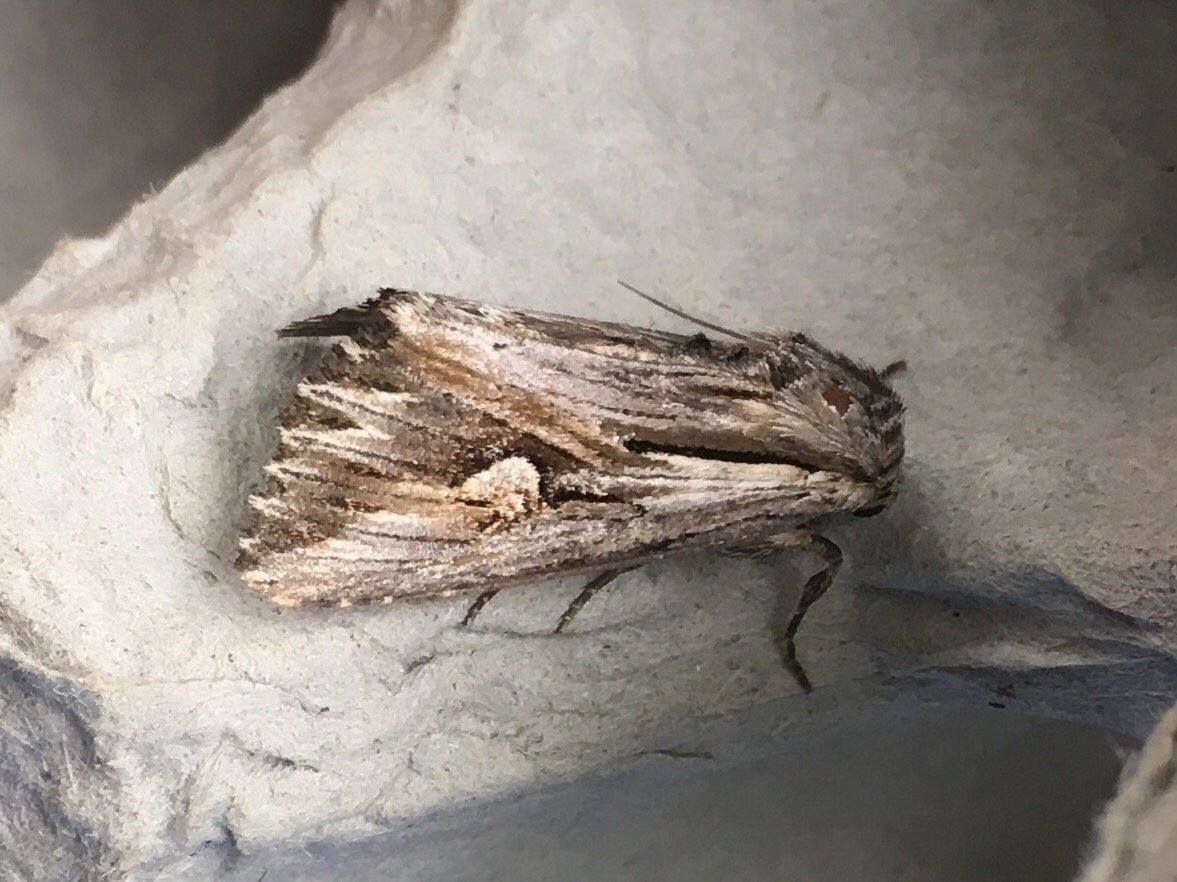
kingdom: Animalia
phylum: Arthropoda
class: Insecta
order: Lepidoptera
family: Noctuidae
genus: Nedra
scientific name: Nedra ramosula
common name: Gray half-spot
